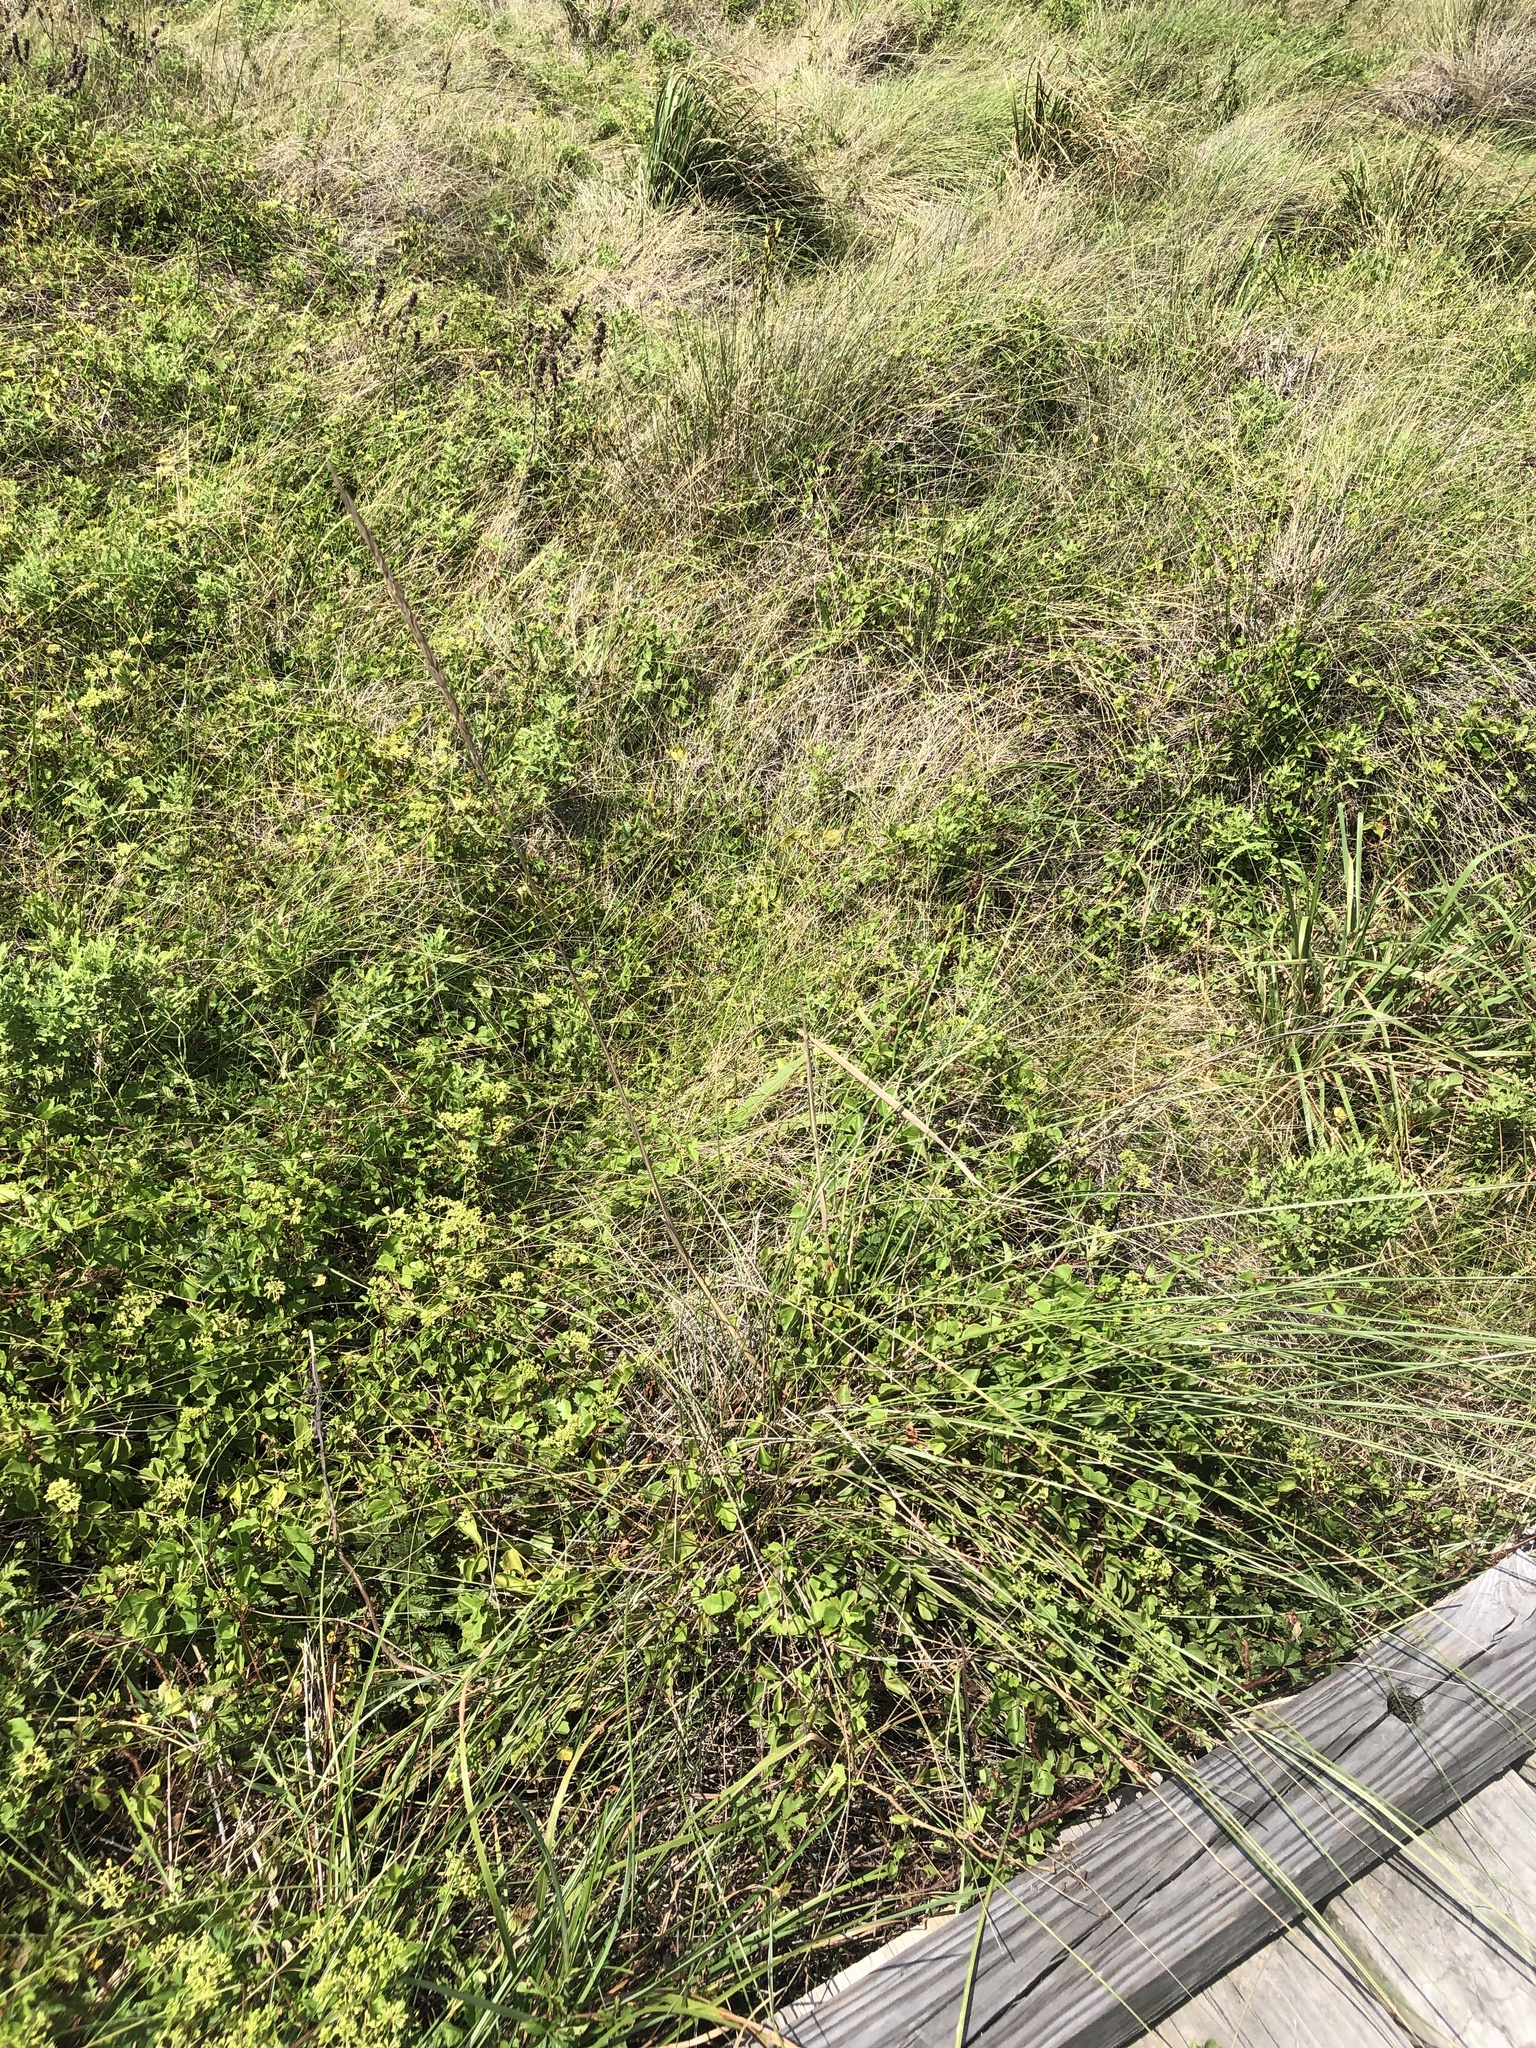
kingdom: Plantae
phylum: Tracheophyta
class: Liliopsida
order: Poales
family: Poaceae
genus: Sporobolus
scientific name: Sporobolus spartinae
